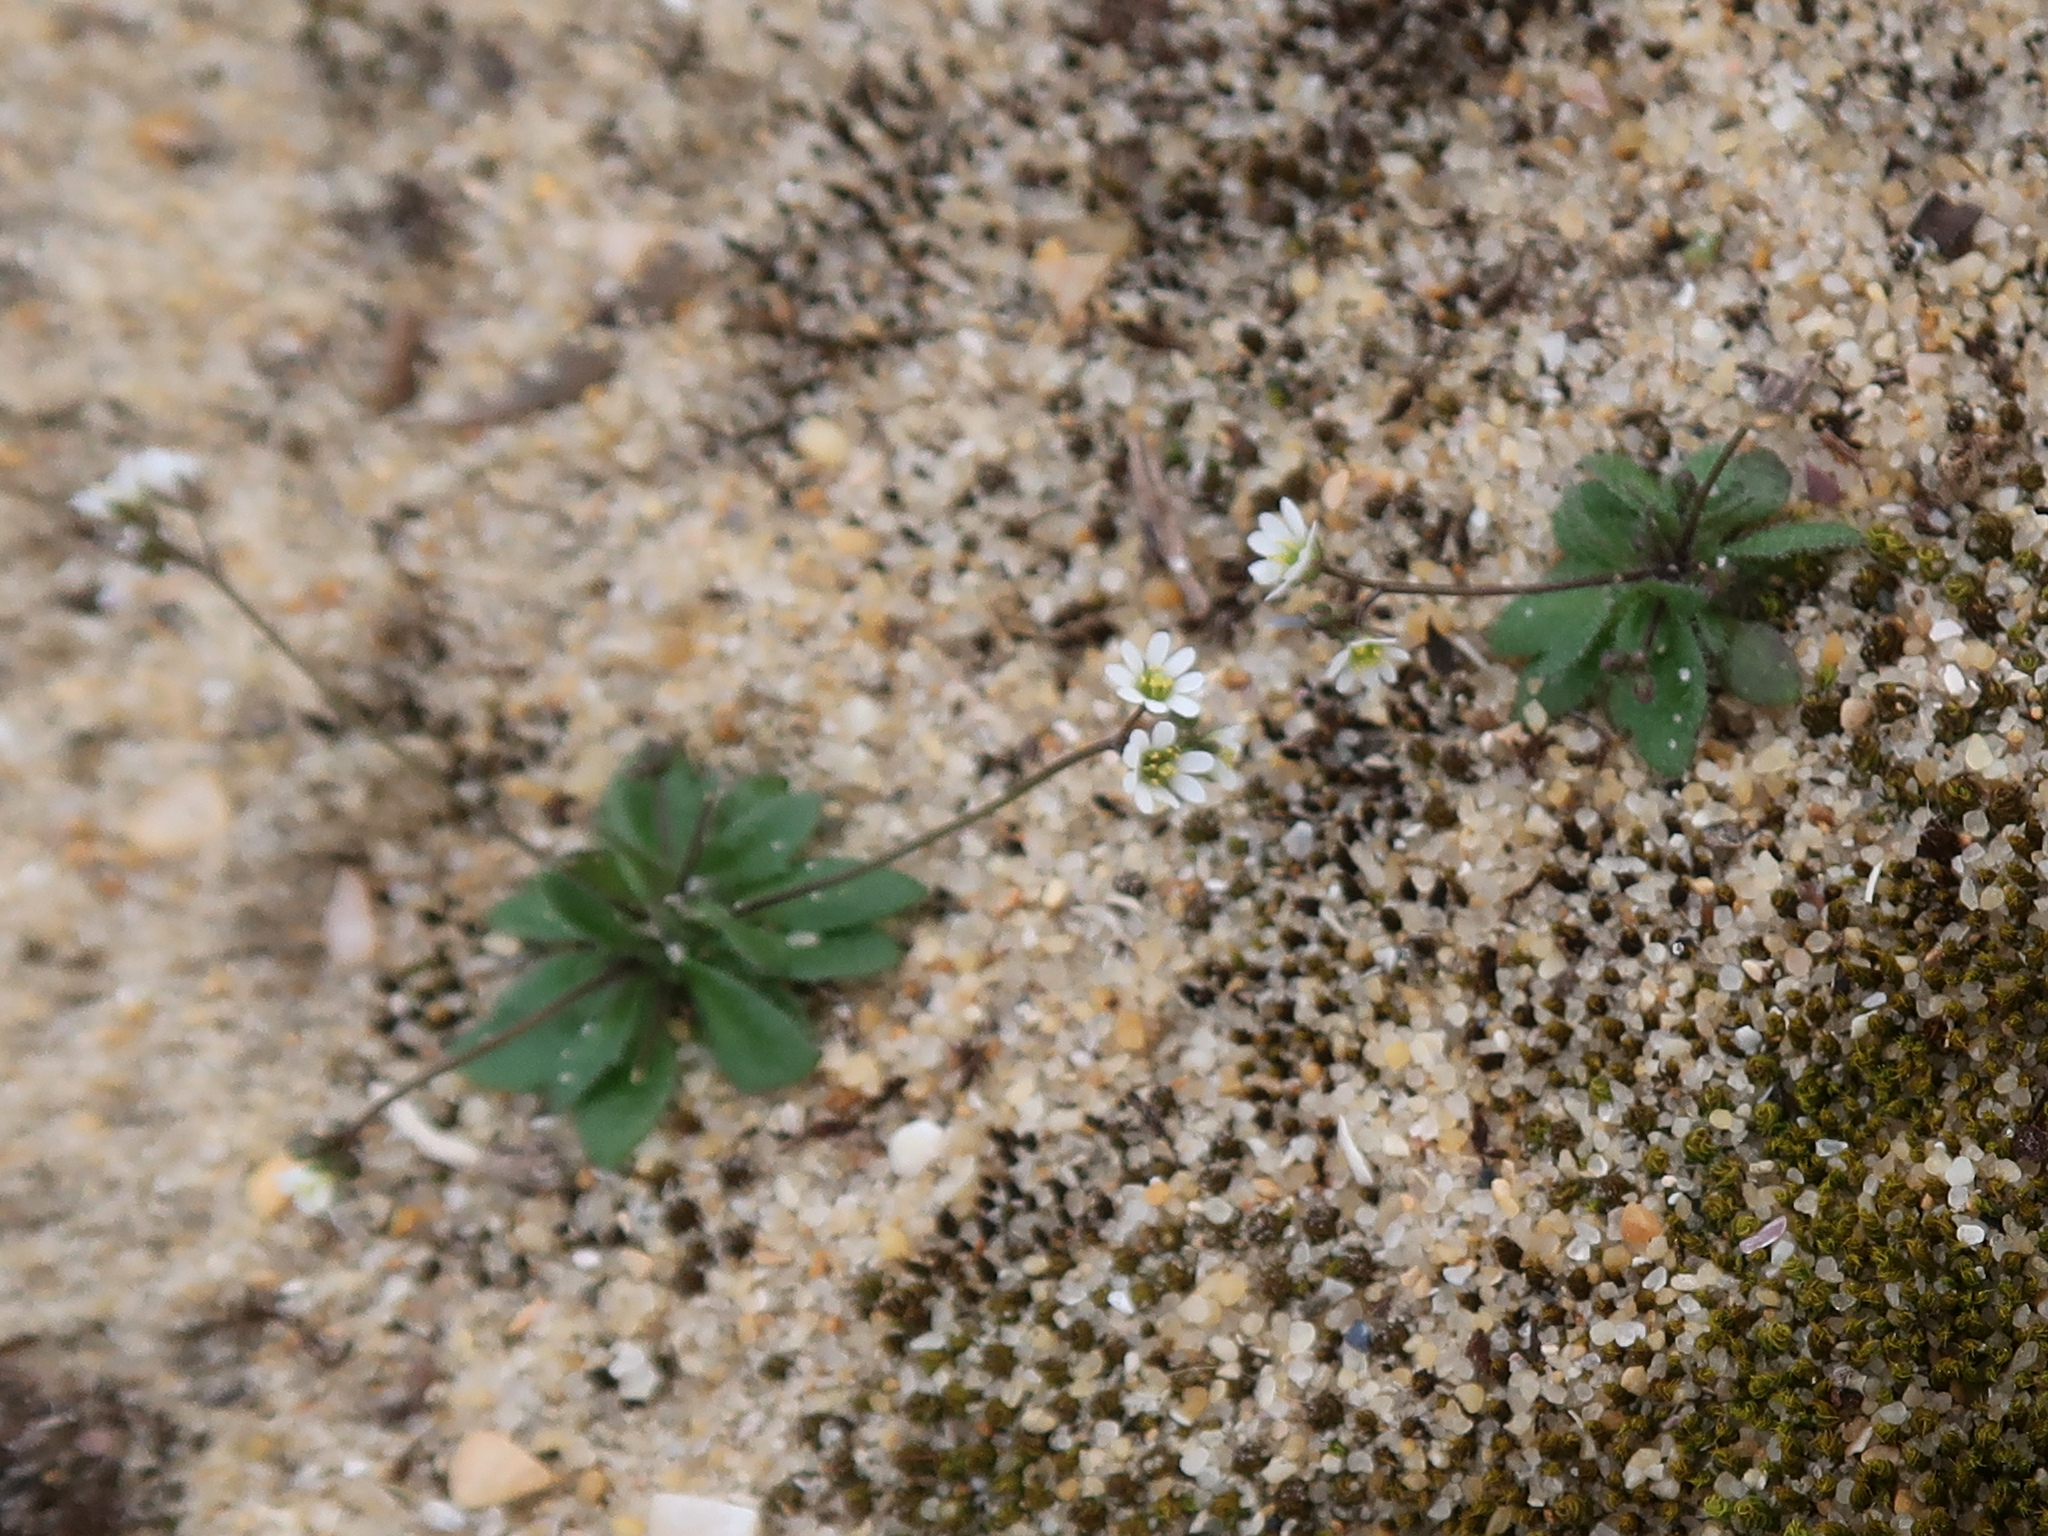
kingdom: Plantae
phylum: Tracheophyta
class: Magnoliopsida
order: Brassicales
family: Brassicaceae
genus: Draba
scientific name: Draba verna
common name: Spring draba
